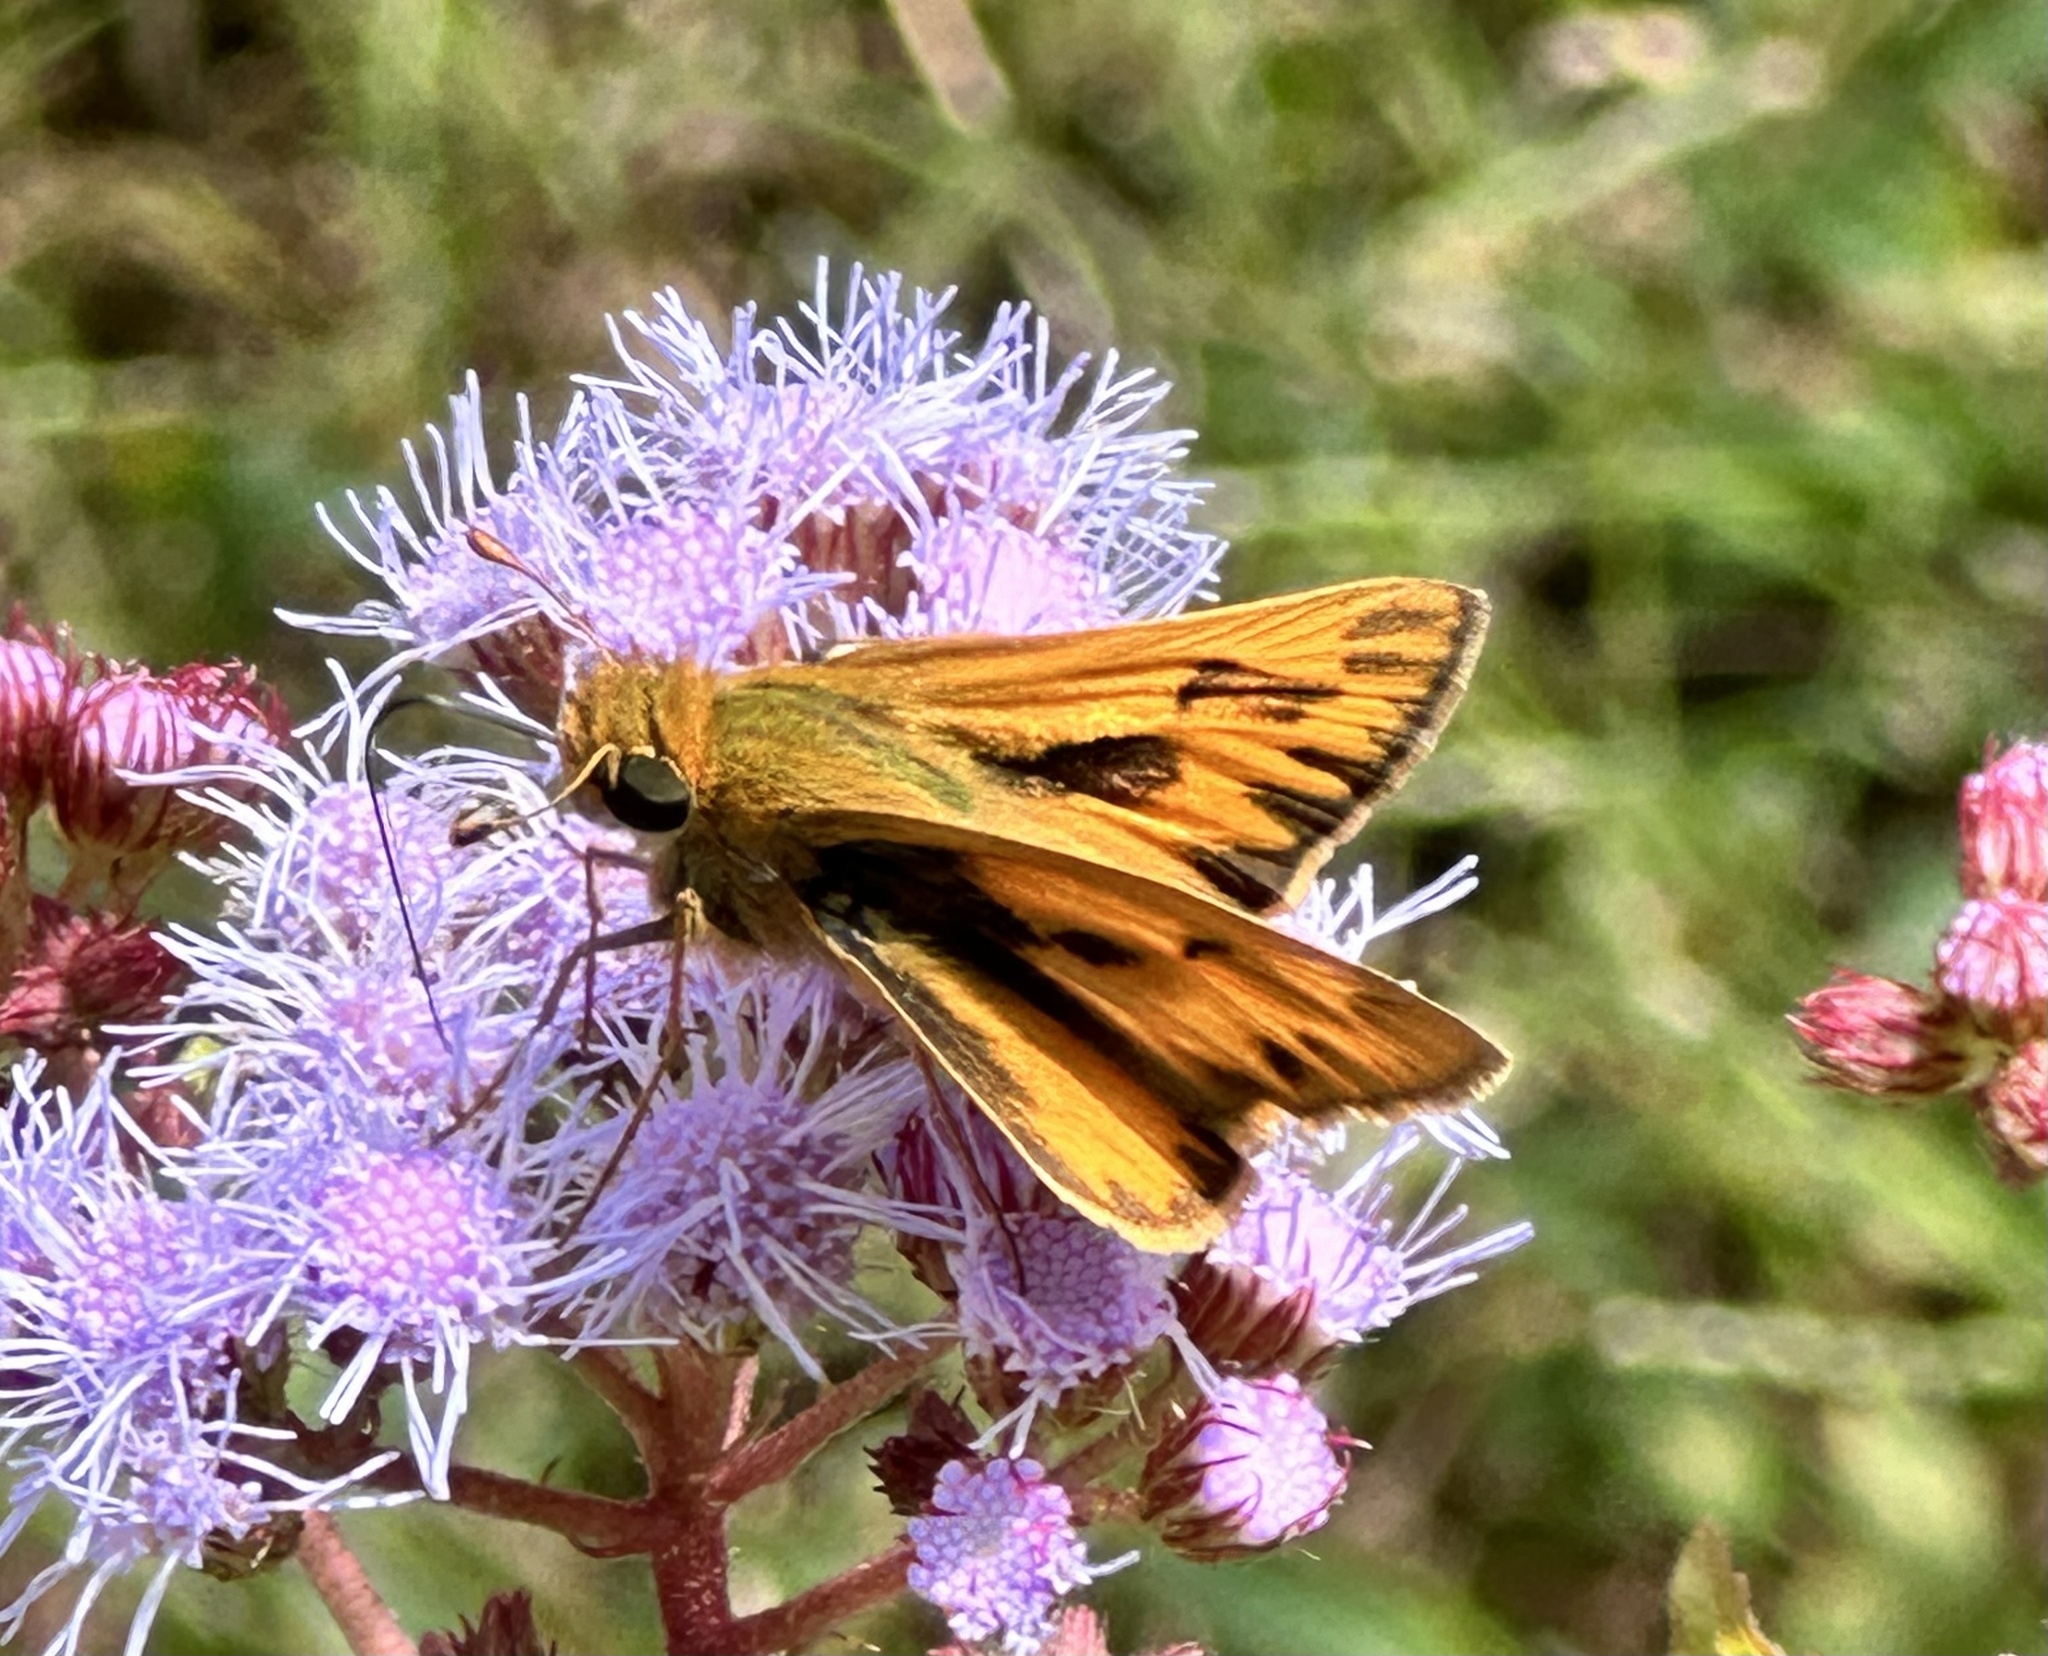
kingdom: Animalia
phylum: Arthropoda
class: Insecta
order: Lepidoptera
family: Hesperiidae
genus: Hylephila
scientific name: Hylephila phyleus
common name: Fiery skipper
